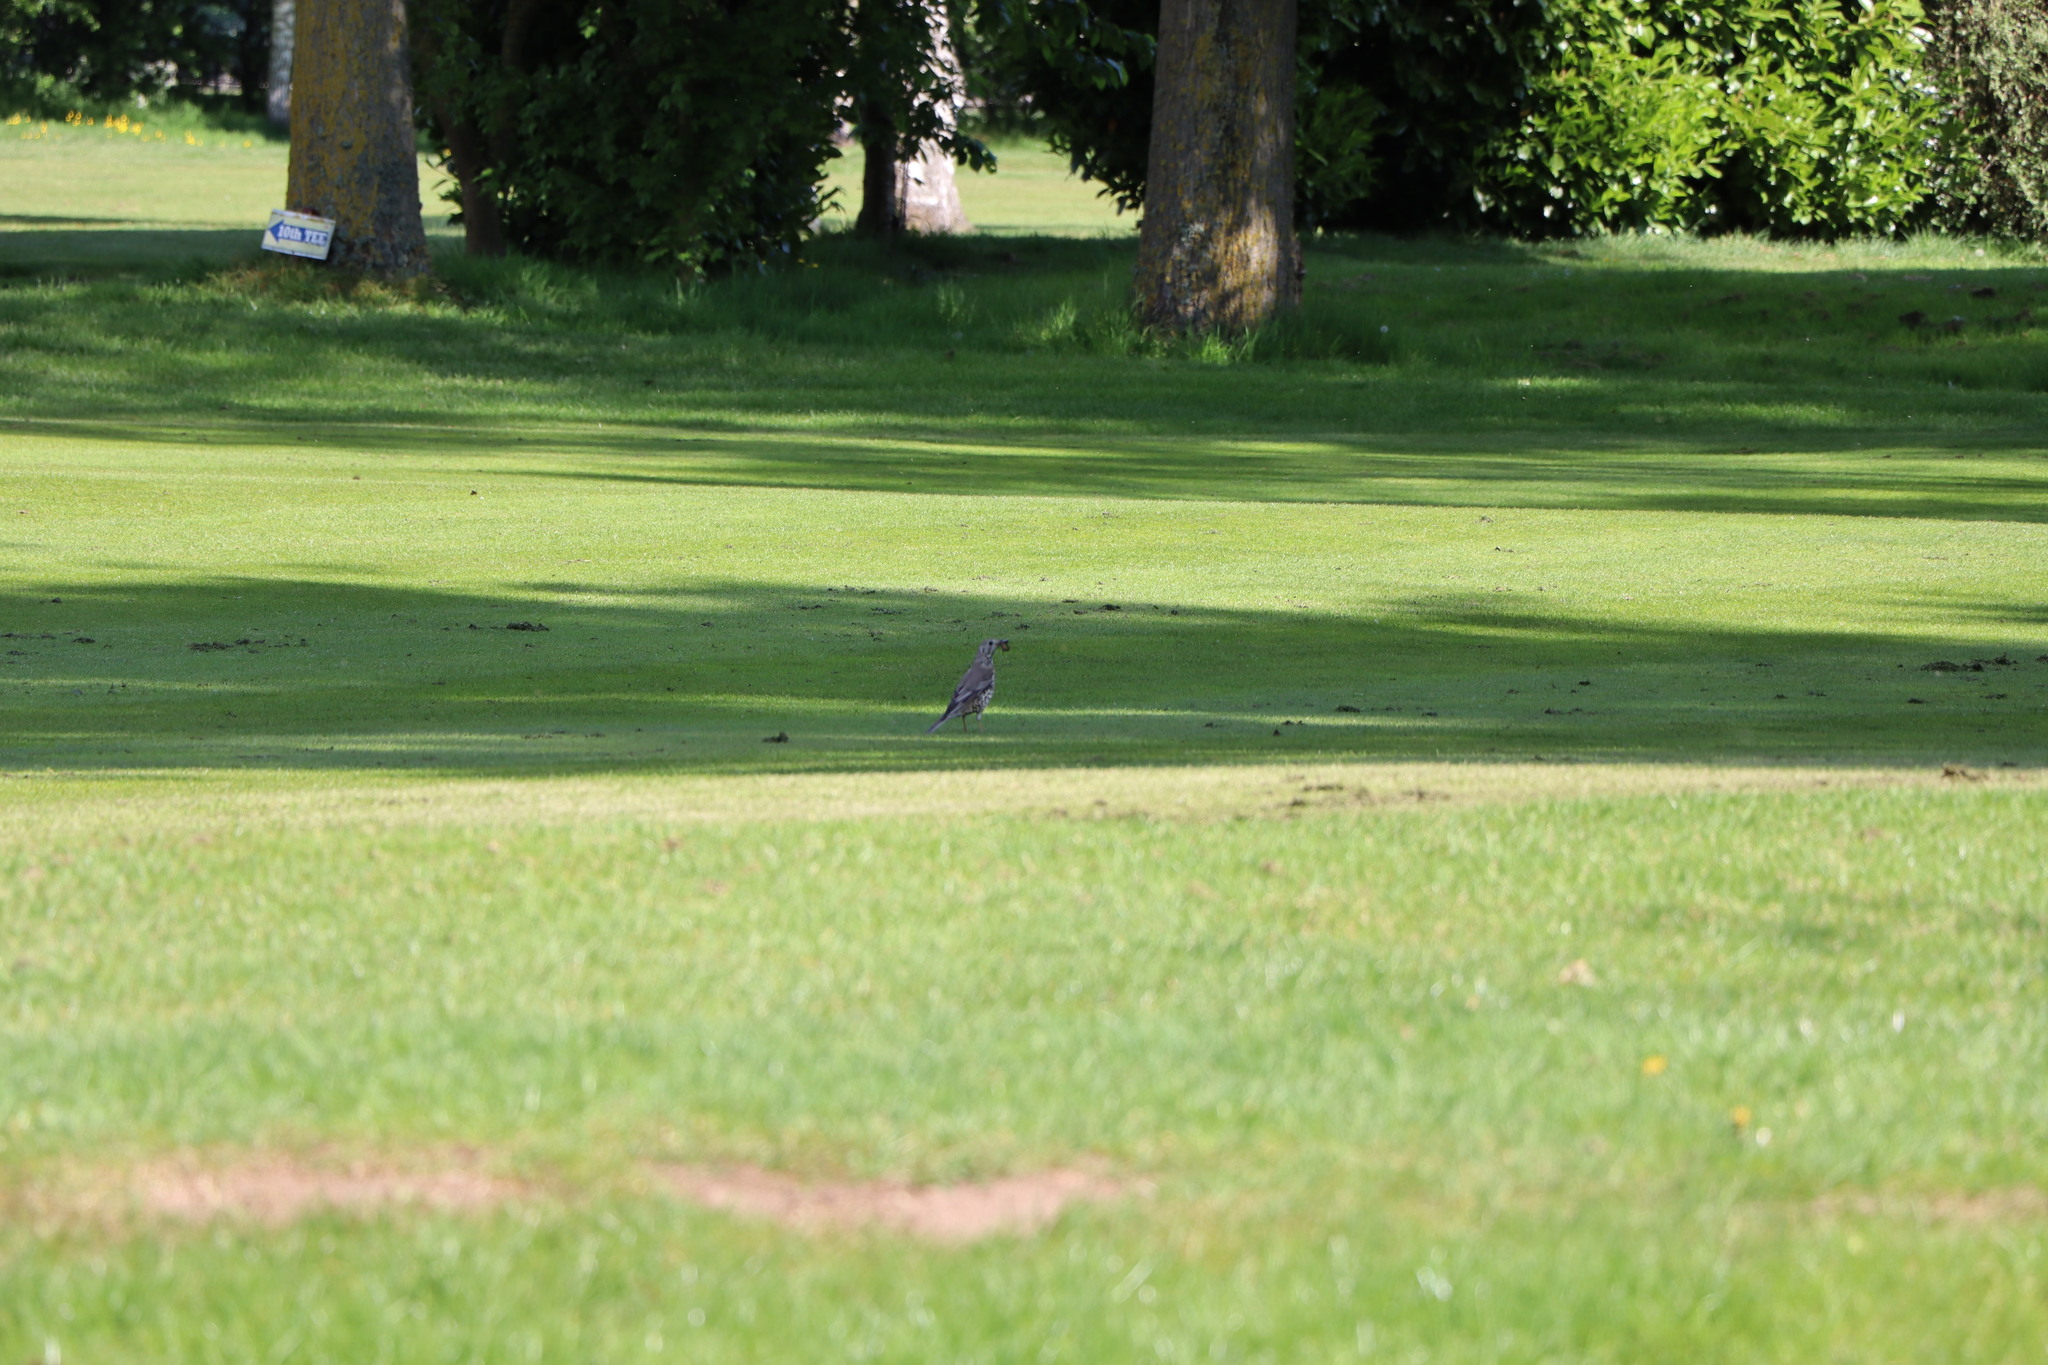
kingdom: Animalia
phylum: Chordata
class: Aves
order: Passeriformes
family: Turdidae
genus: Turdus
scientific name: Turdus viscivorus
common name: Mistle thrush
